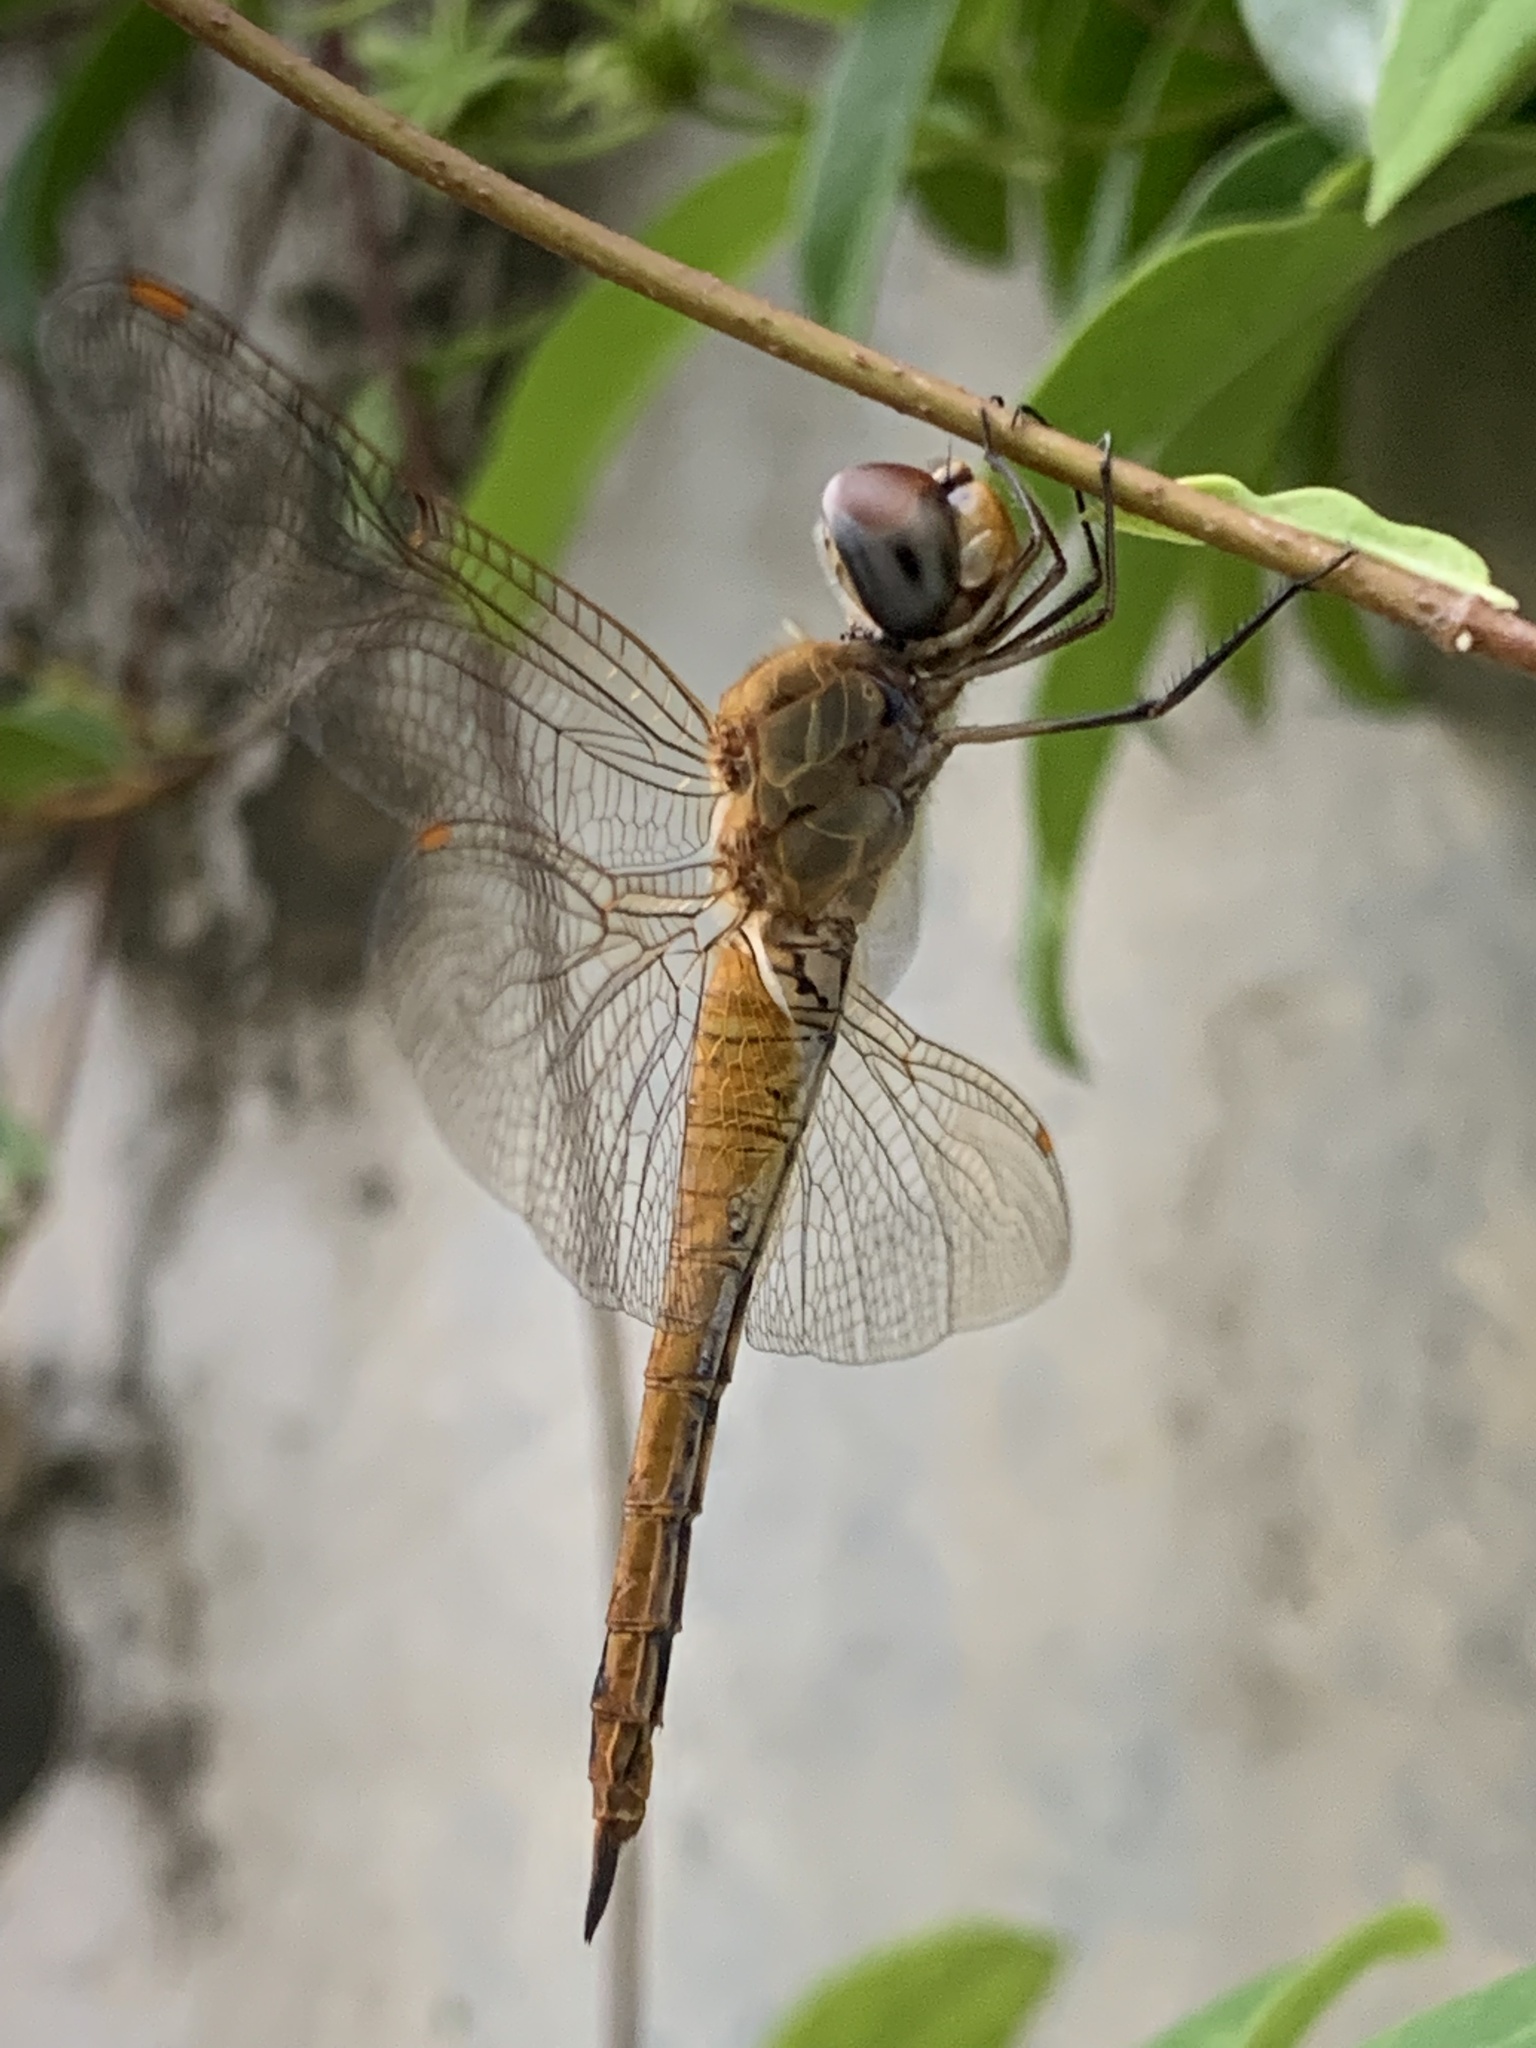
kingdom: Animalia
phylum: Arthropoda
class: Insecta
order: Odonata
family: Libellulidae
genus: Pantala
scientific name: Pantala flavescens
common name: Wandering glider
